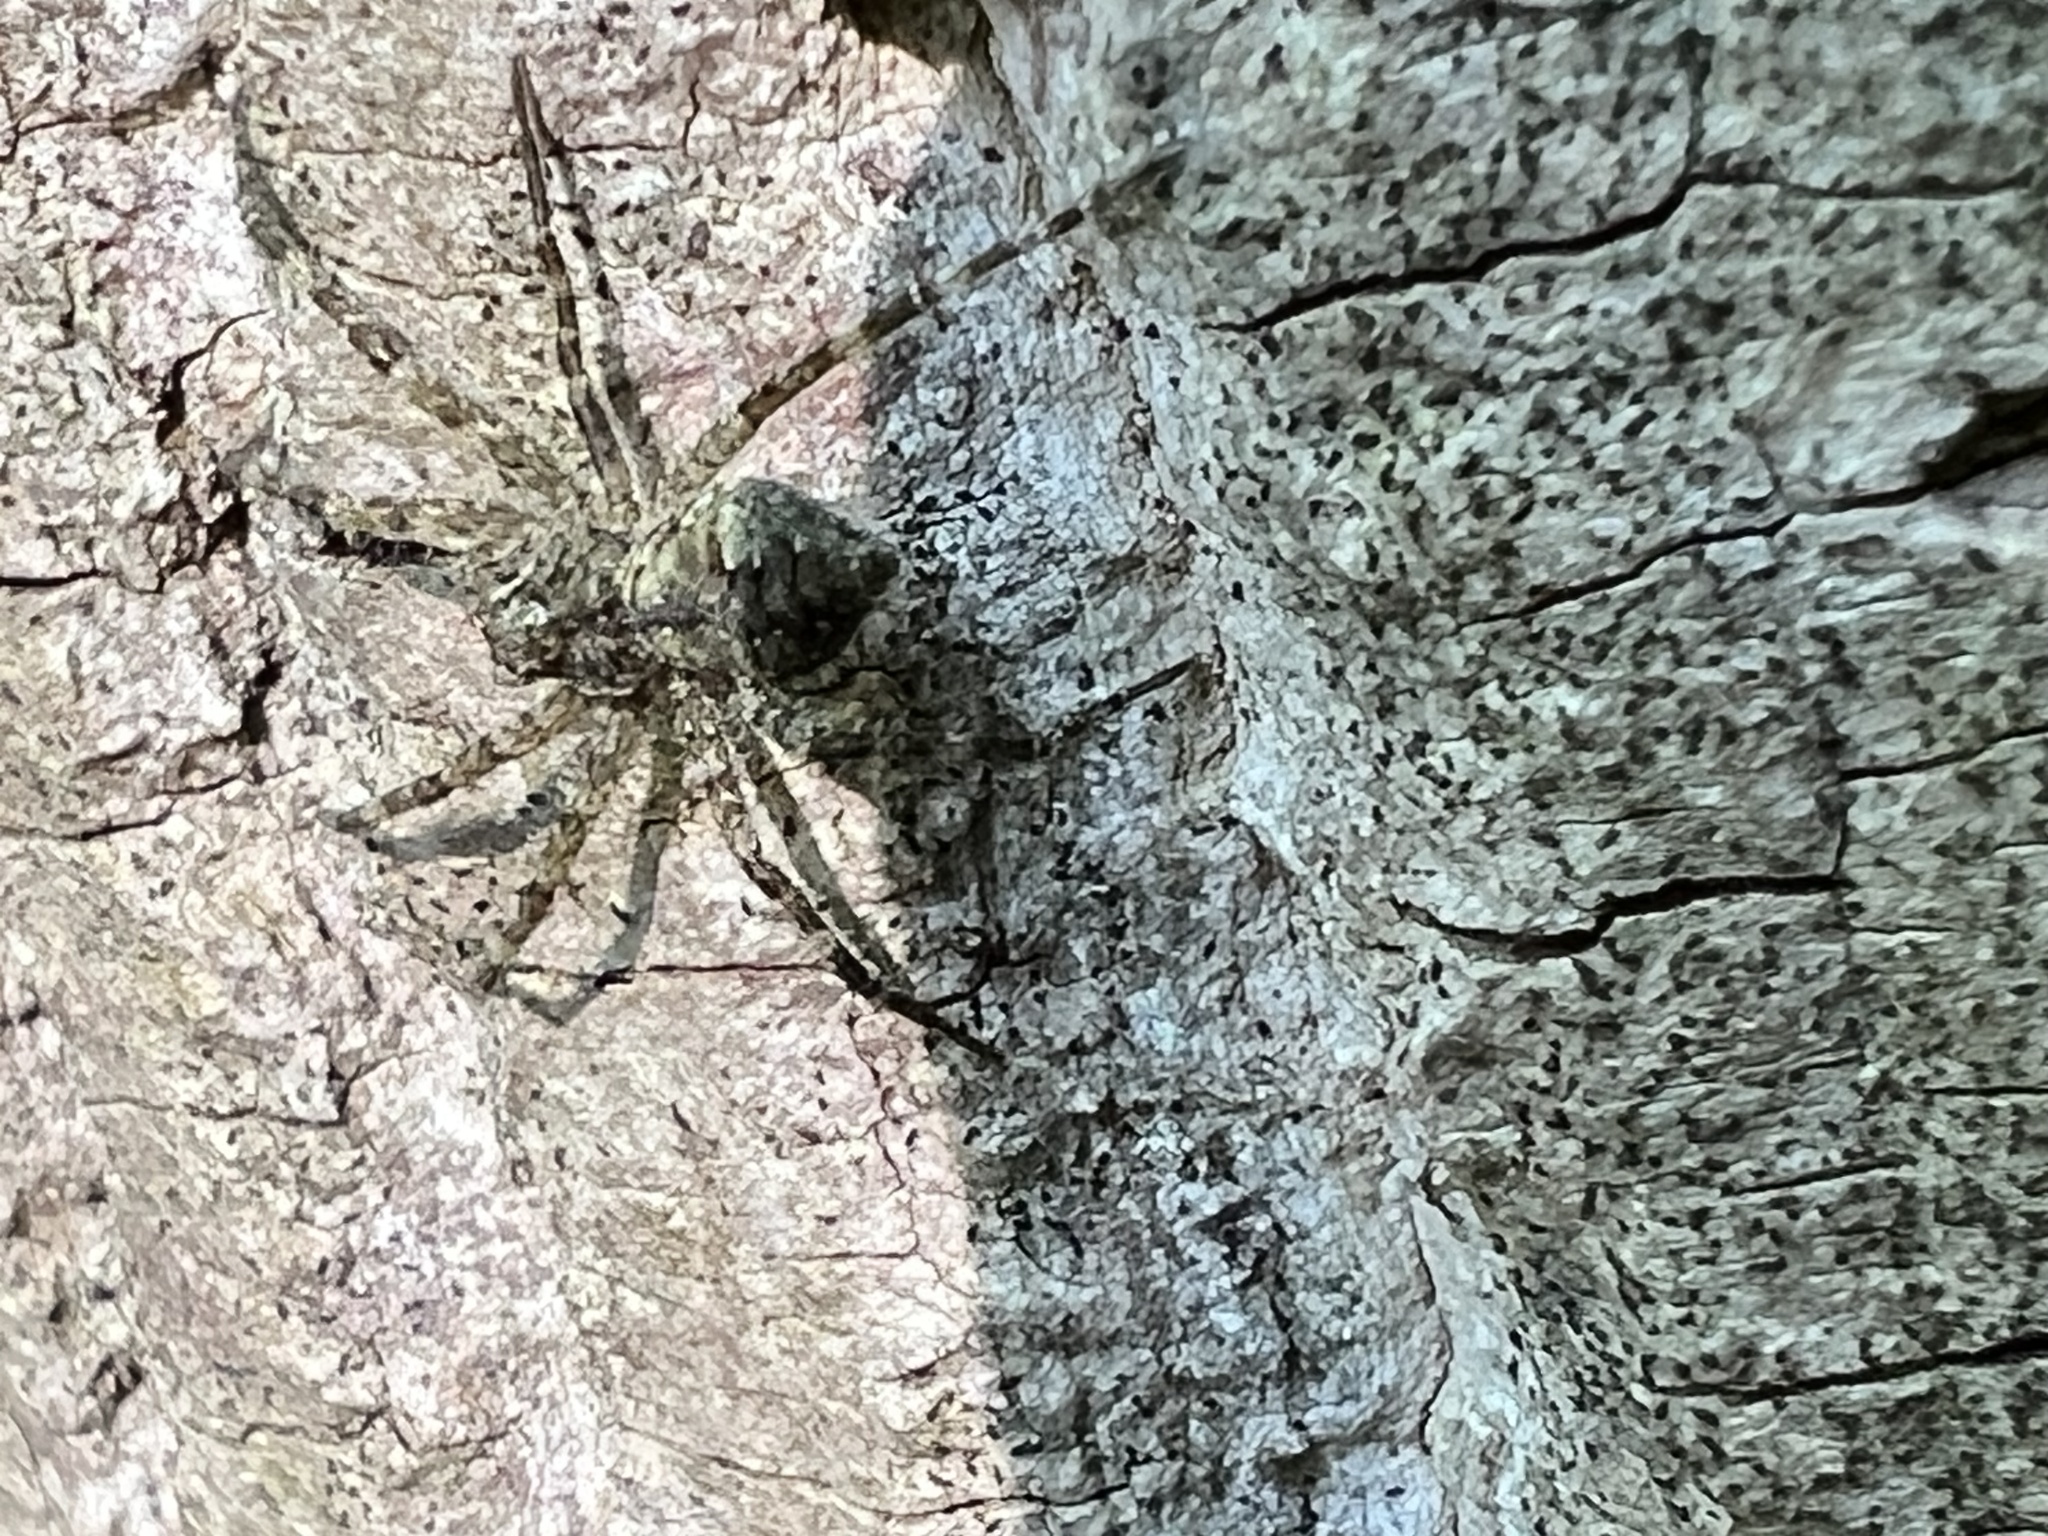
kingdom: Animalia
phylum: Arthropoda
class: Arachnida
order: Araneae
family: Pisauridae
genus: Dolomedes
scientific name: Dolomedes albineus
